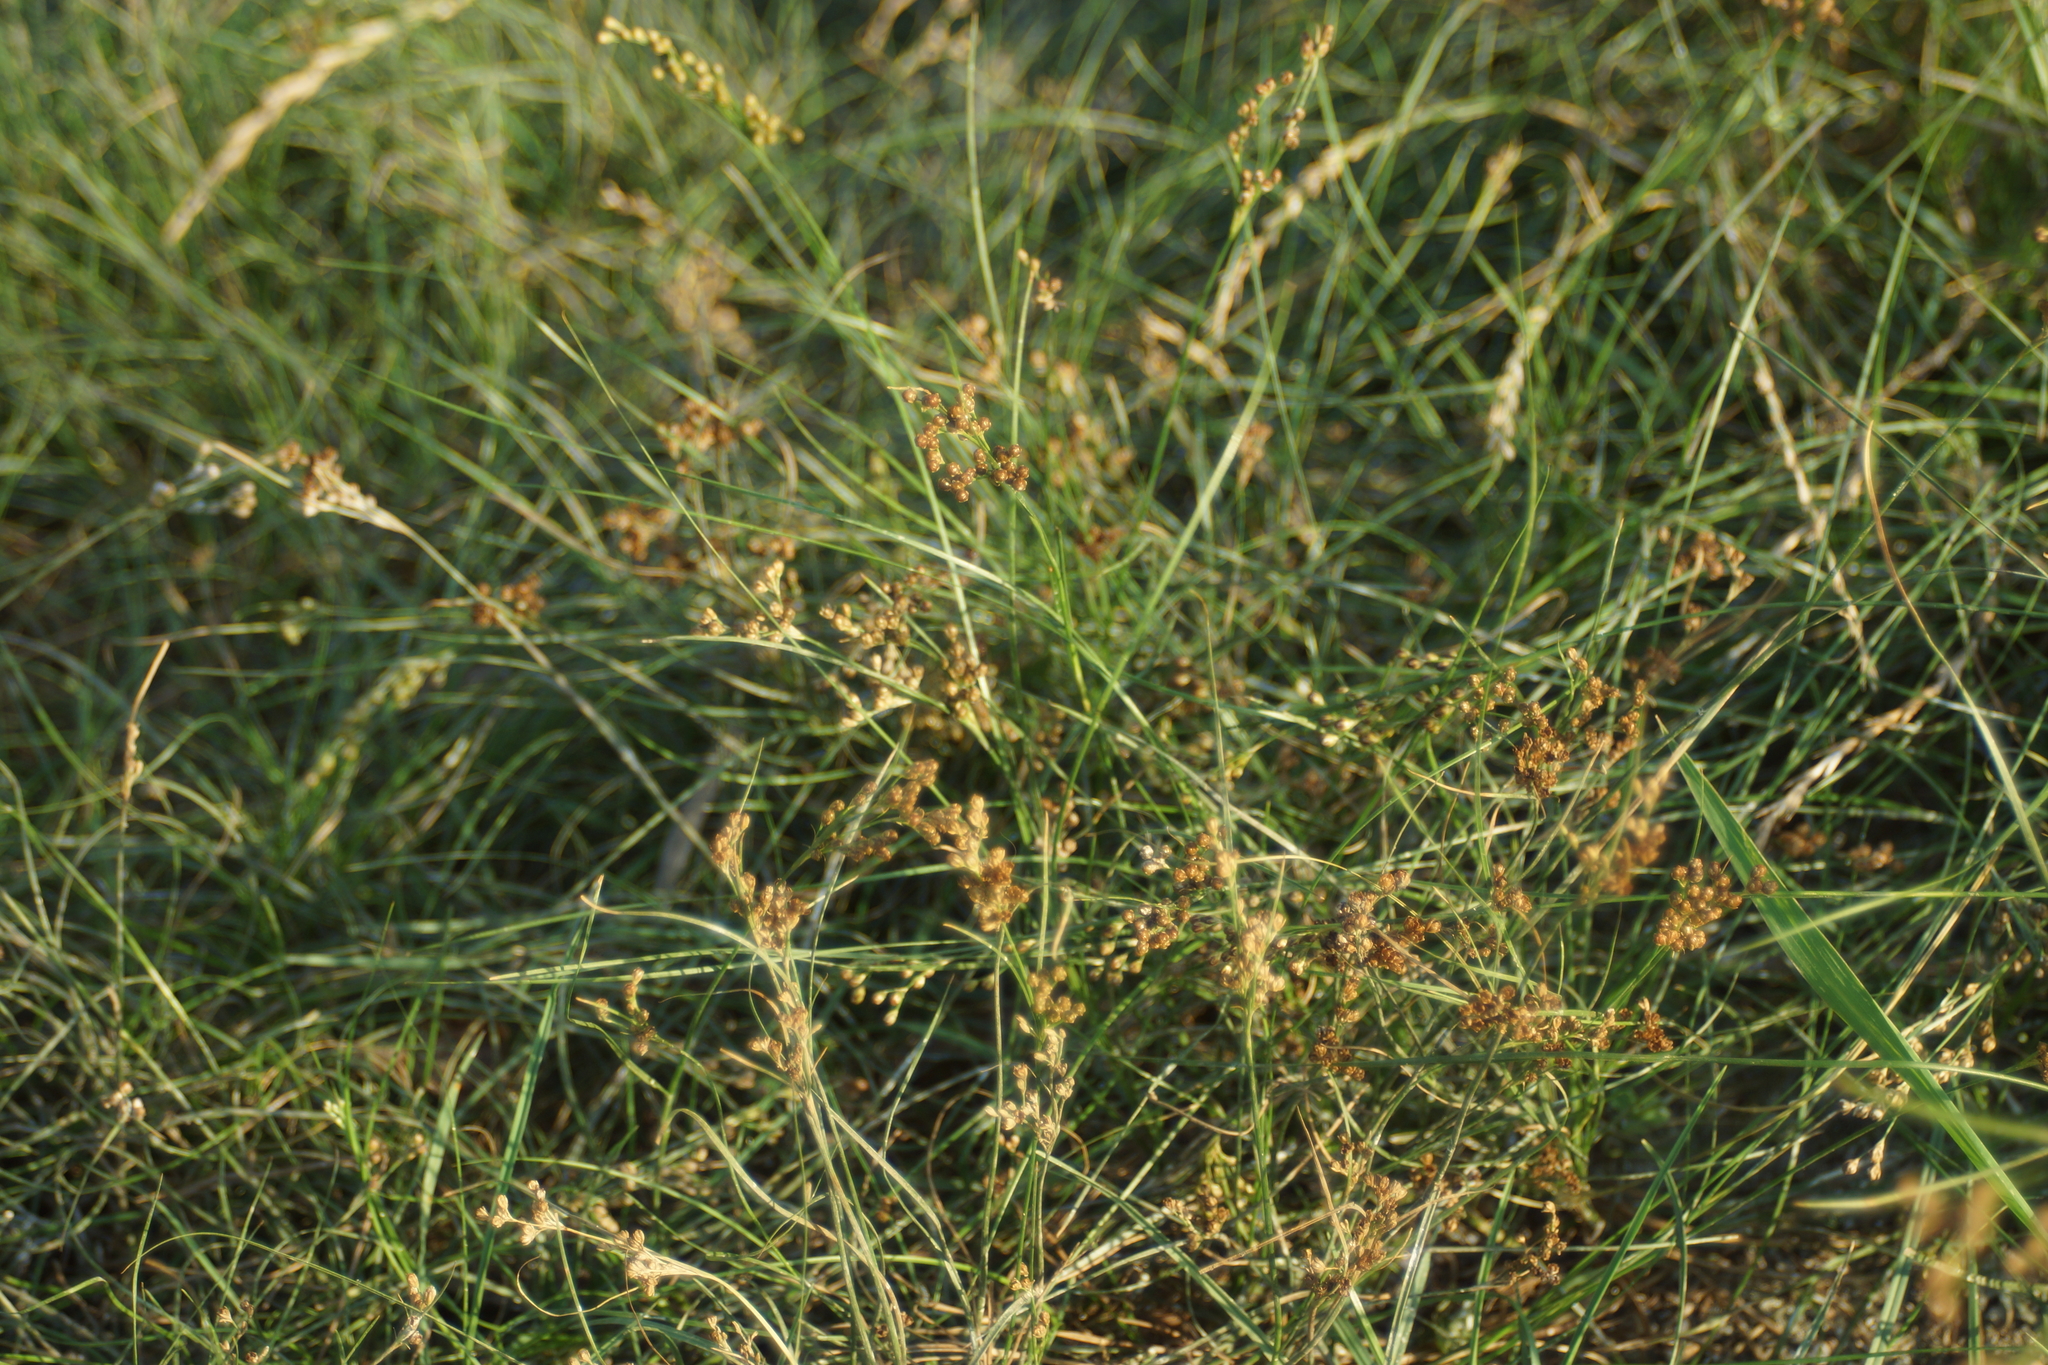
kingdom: Plantae
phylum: Tracheophyta
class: Liliopsida
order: Poales
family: Juncaceae
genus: Juncus
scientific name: Juncus compressus
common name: Round-fruited rush
